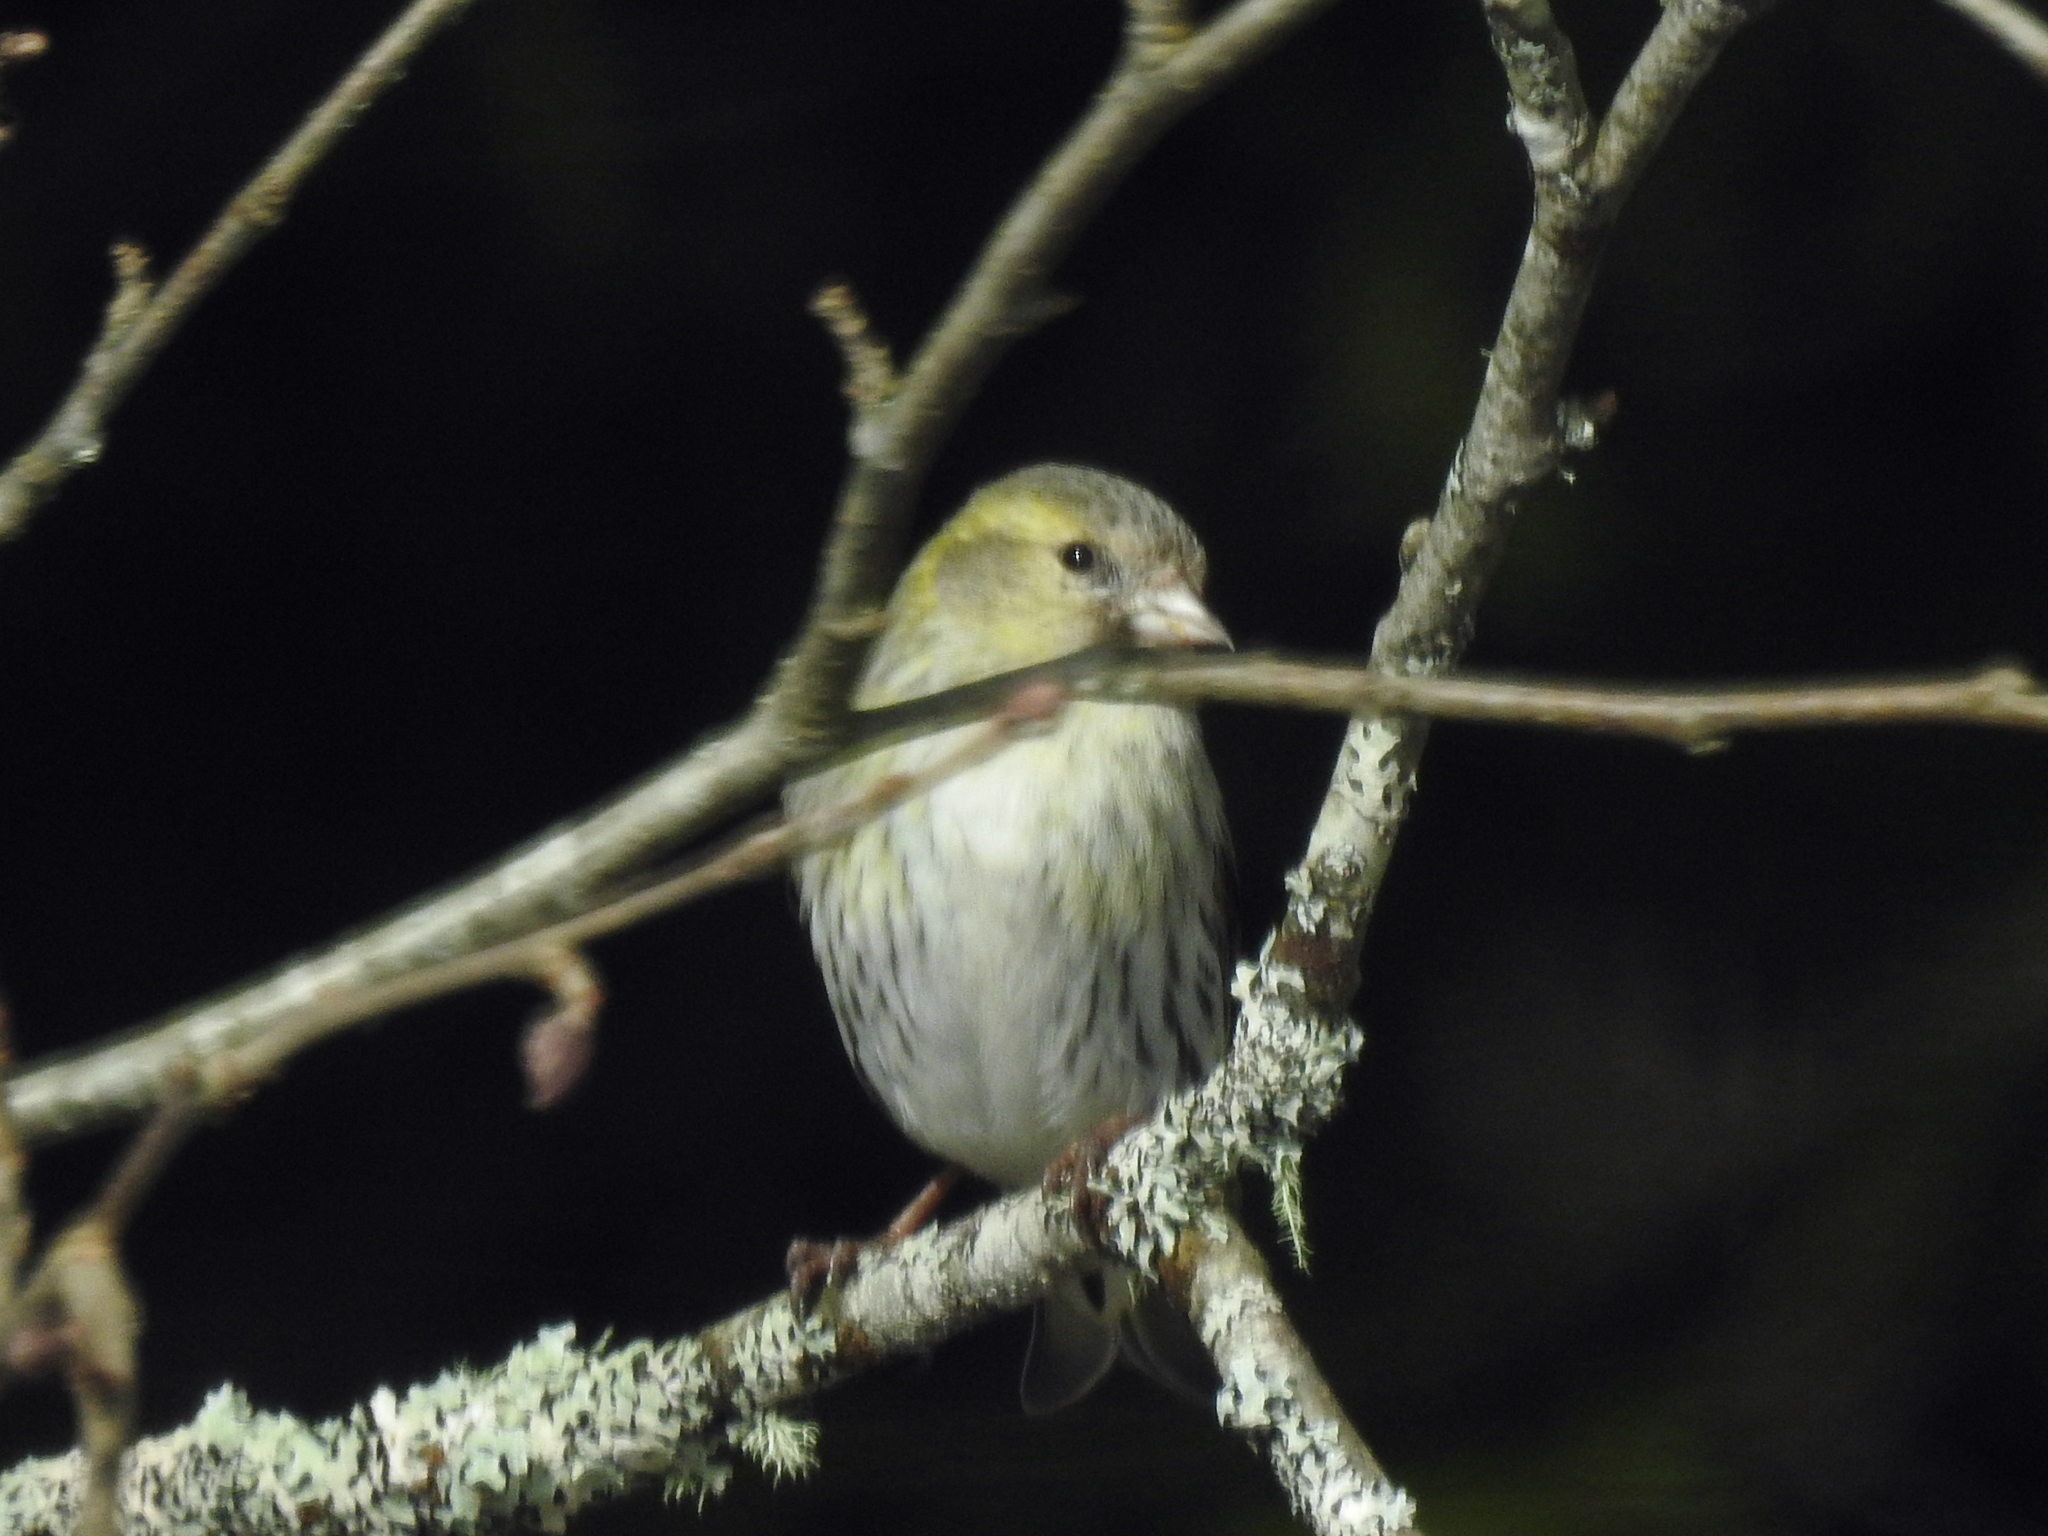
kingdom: Animalia
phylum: Chordata
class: Aves
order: Passeriformes
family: Fringillidae
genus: Spinus
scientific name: Spinus spinus
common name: Eurasian siskin
